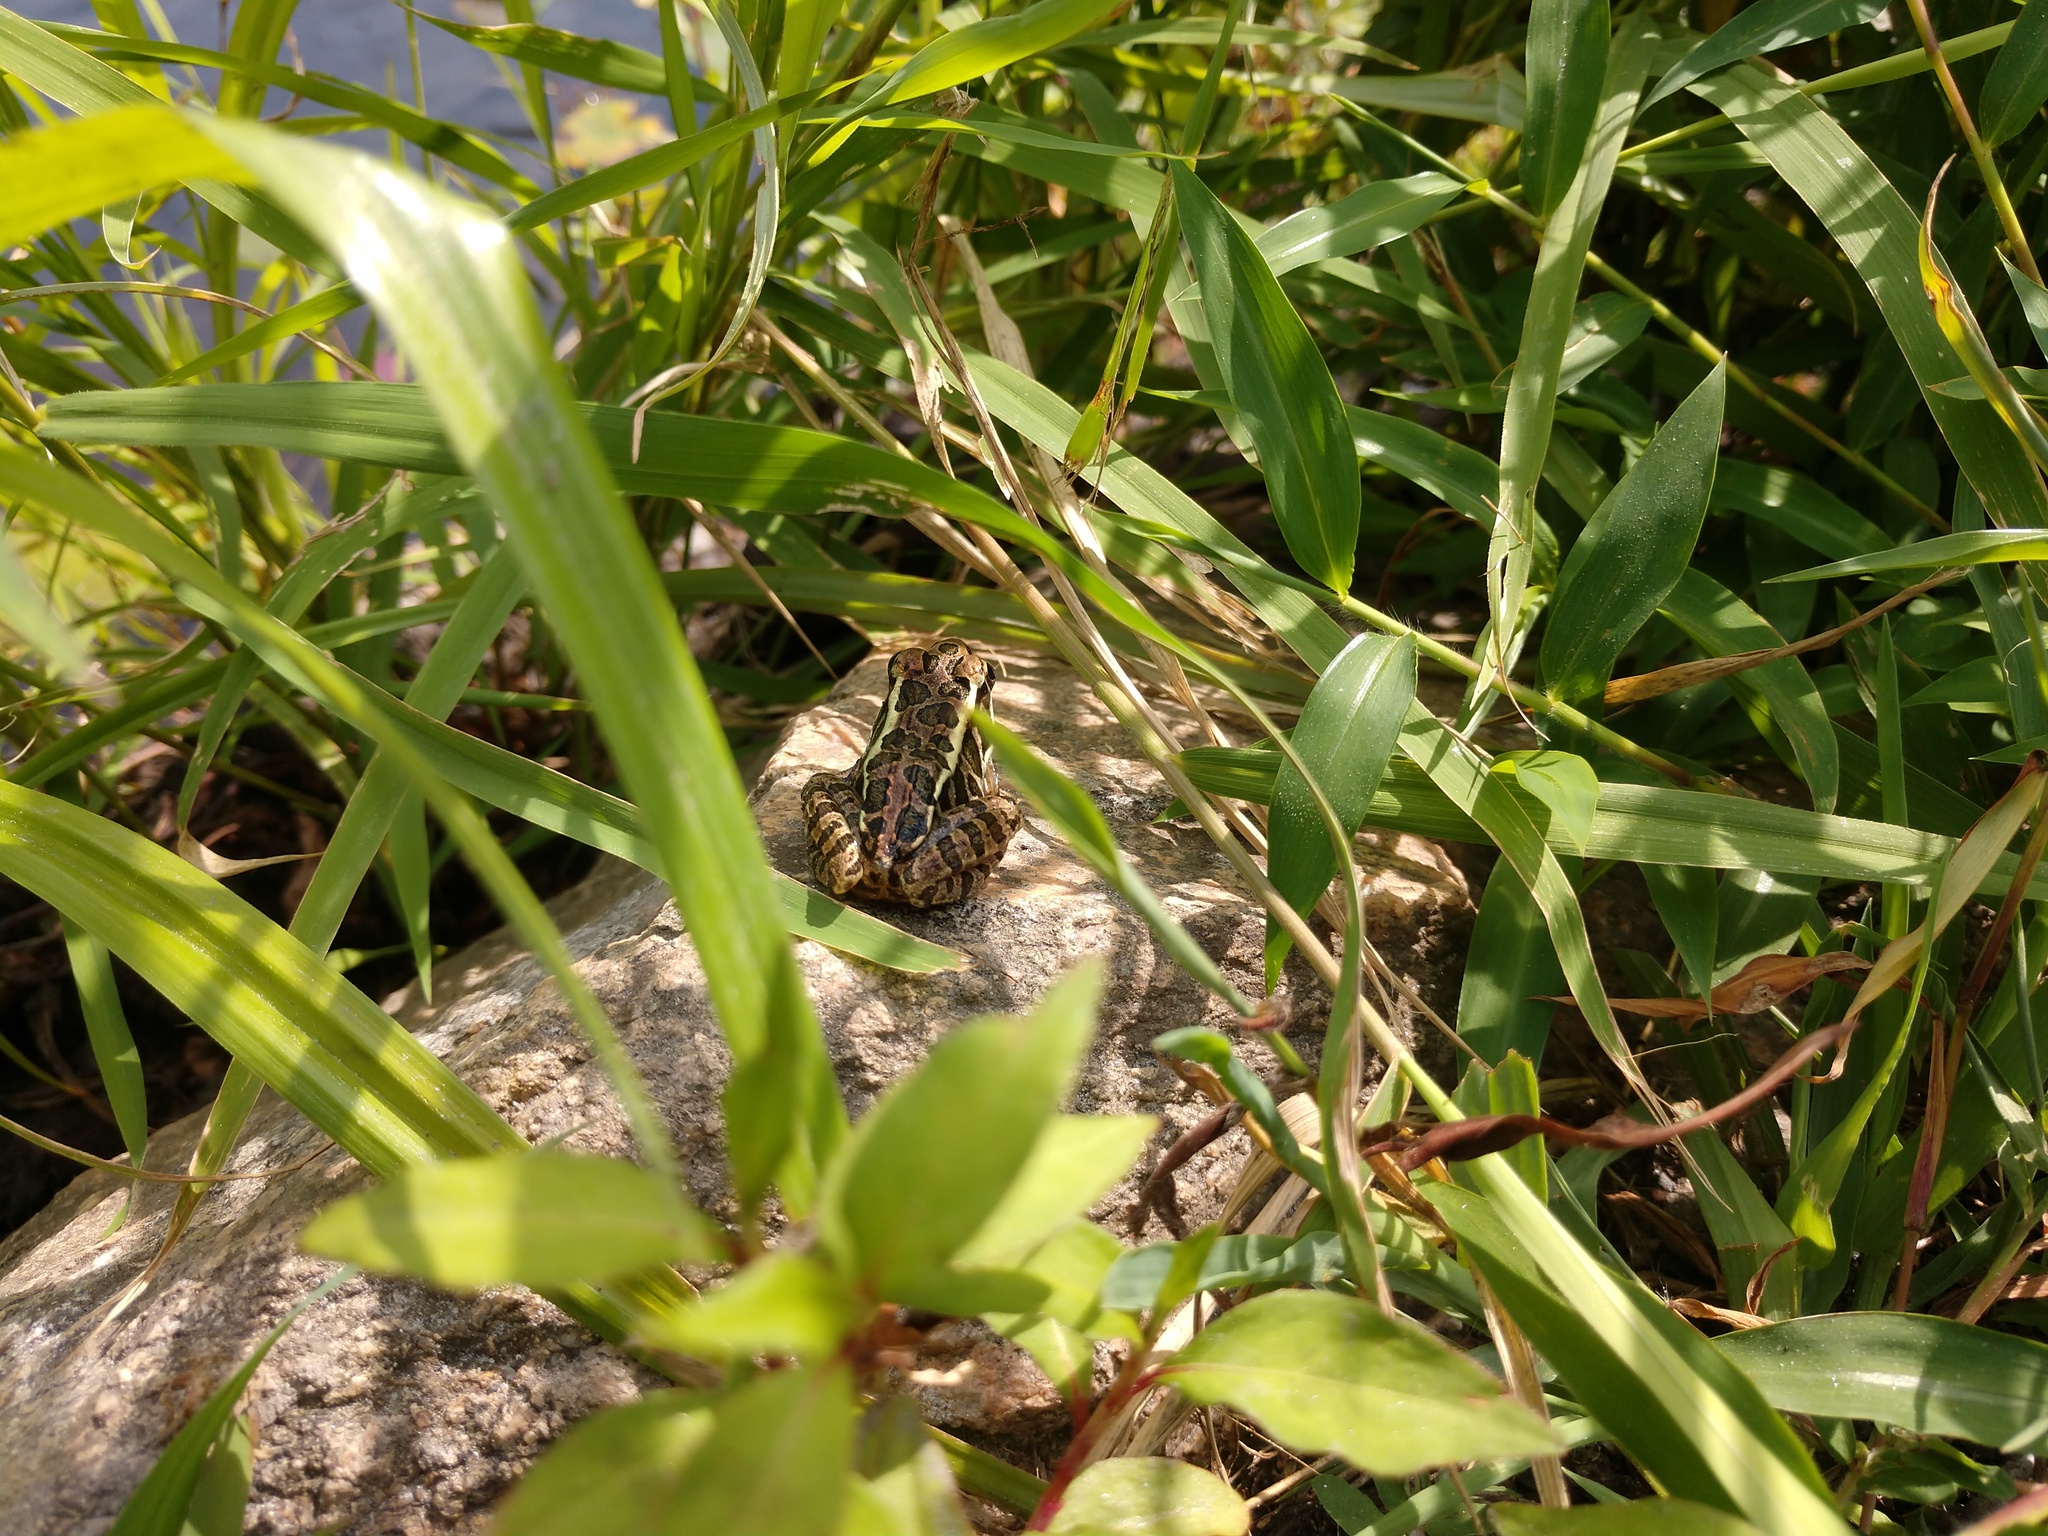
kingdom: Animalia
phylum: Chordata
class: Amphibia
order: Anura
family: Ranidae
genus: Lithobates
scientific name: Lithobates palustris
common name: Pickerel frog
